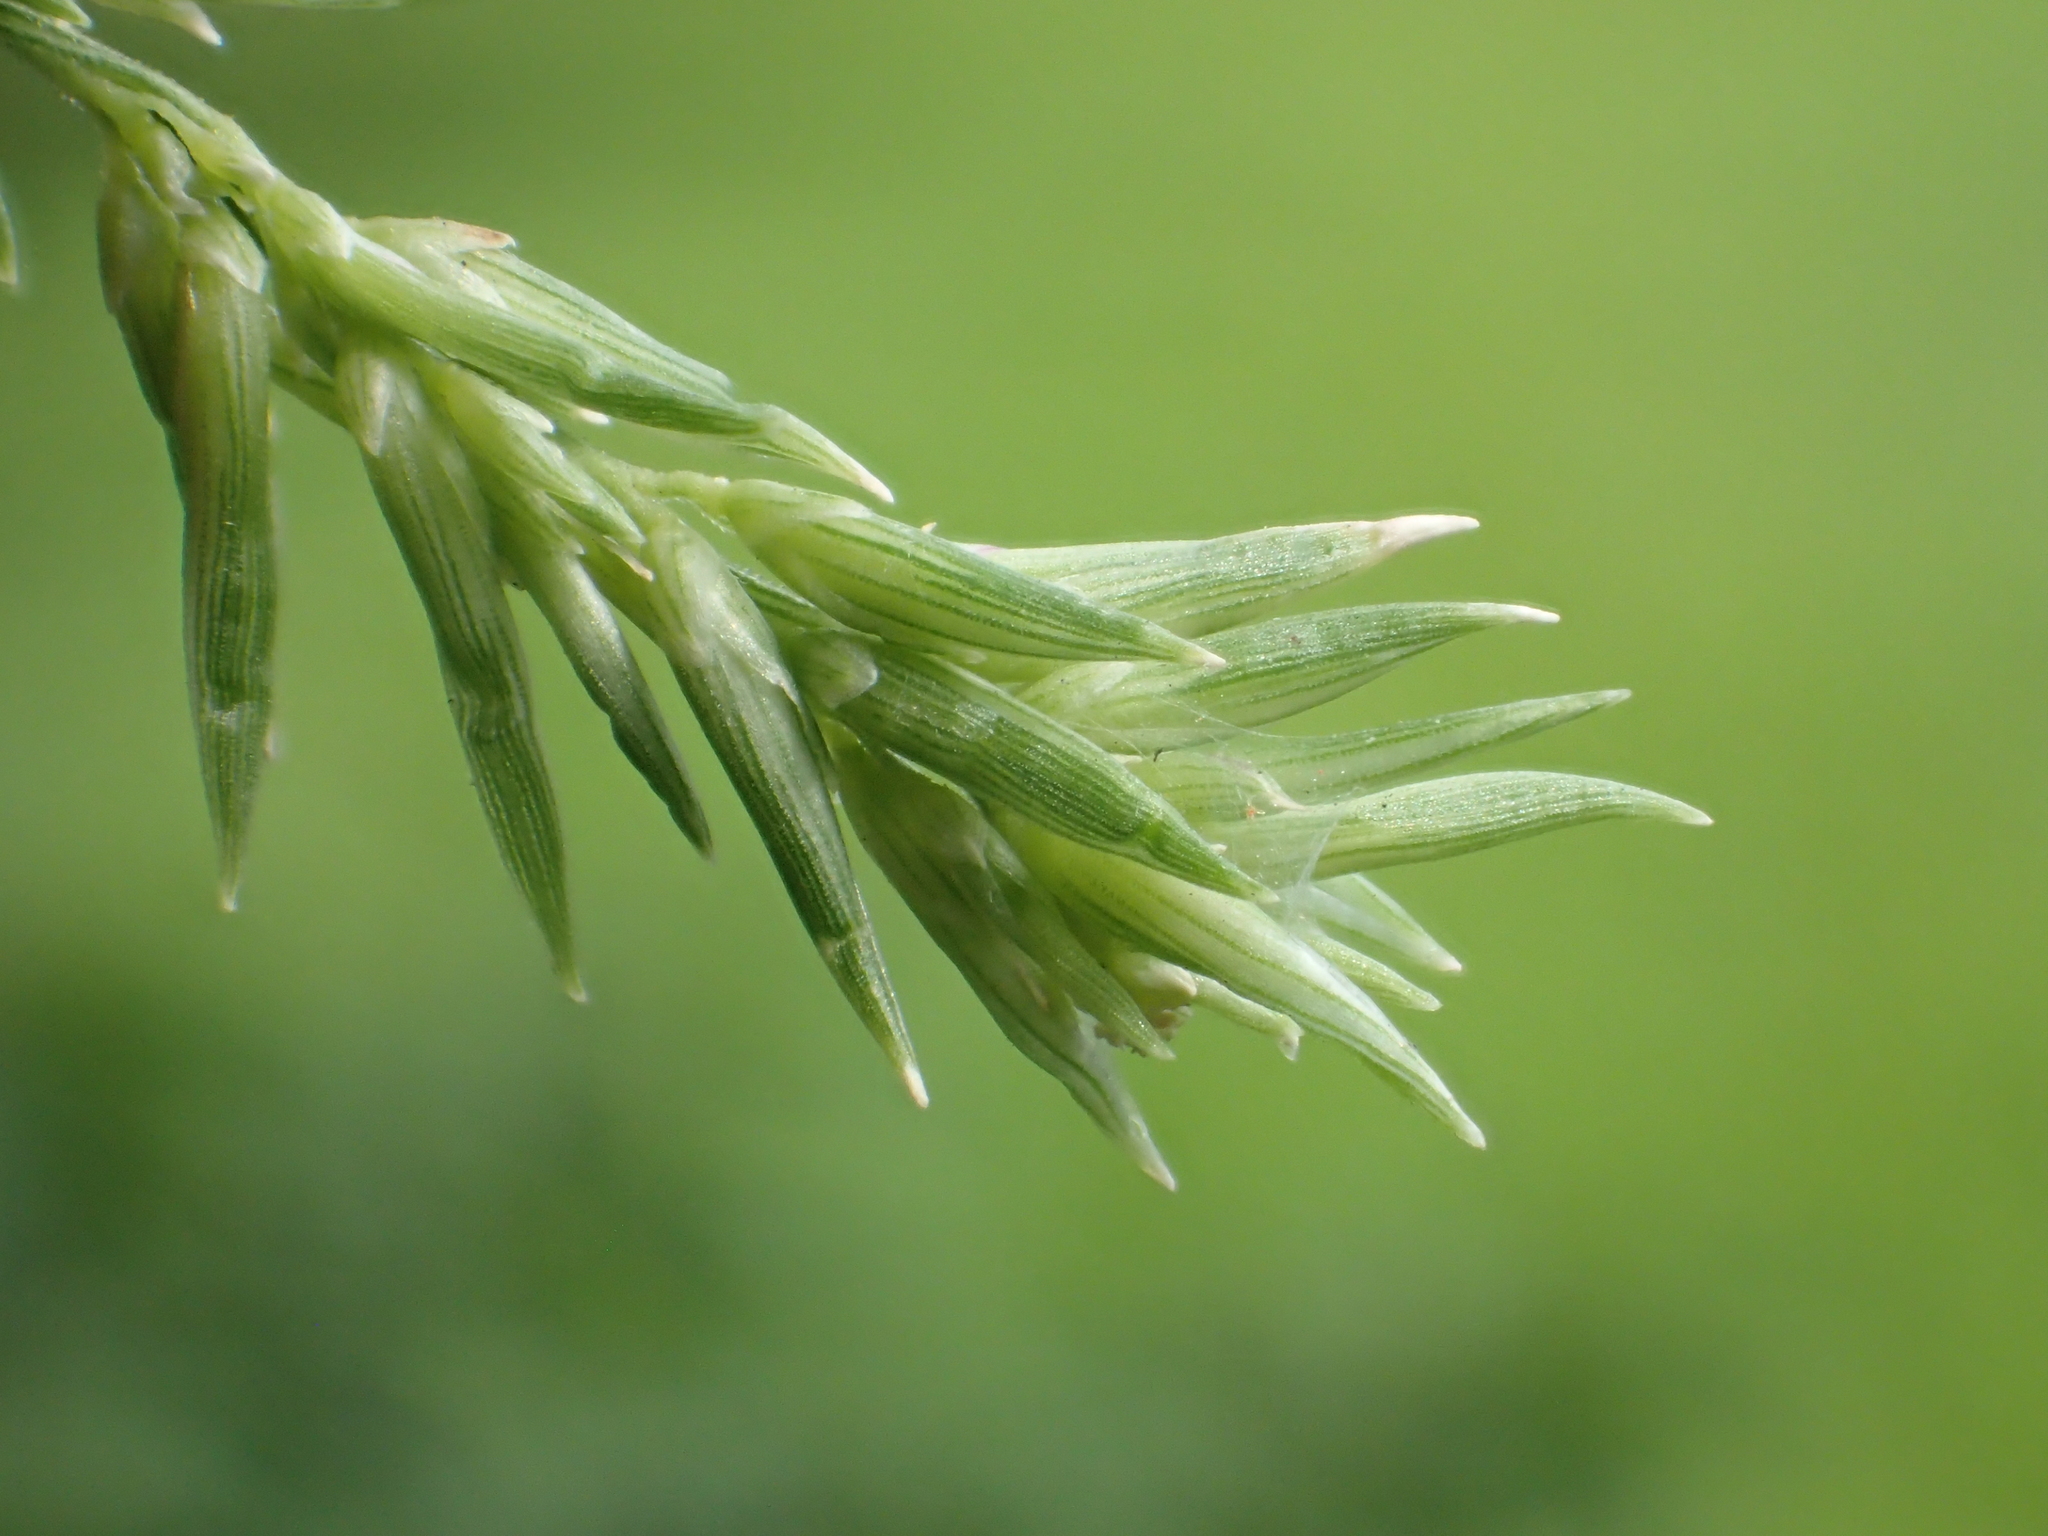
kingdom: Plantae
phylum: Tracheophyta
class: Liliopsida
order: Poales
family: Poaceae
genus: Setaria
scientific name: Setaria palmifolia
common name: Broadleaved bristlegrass
